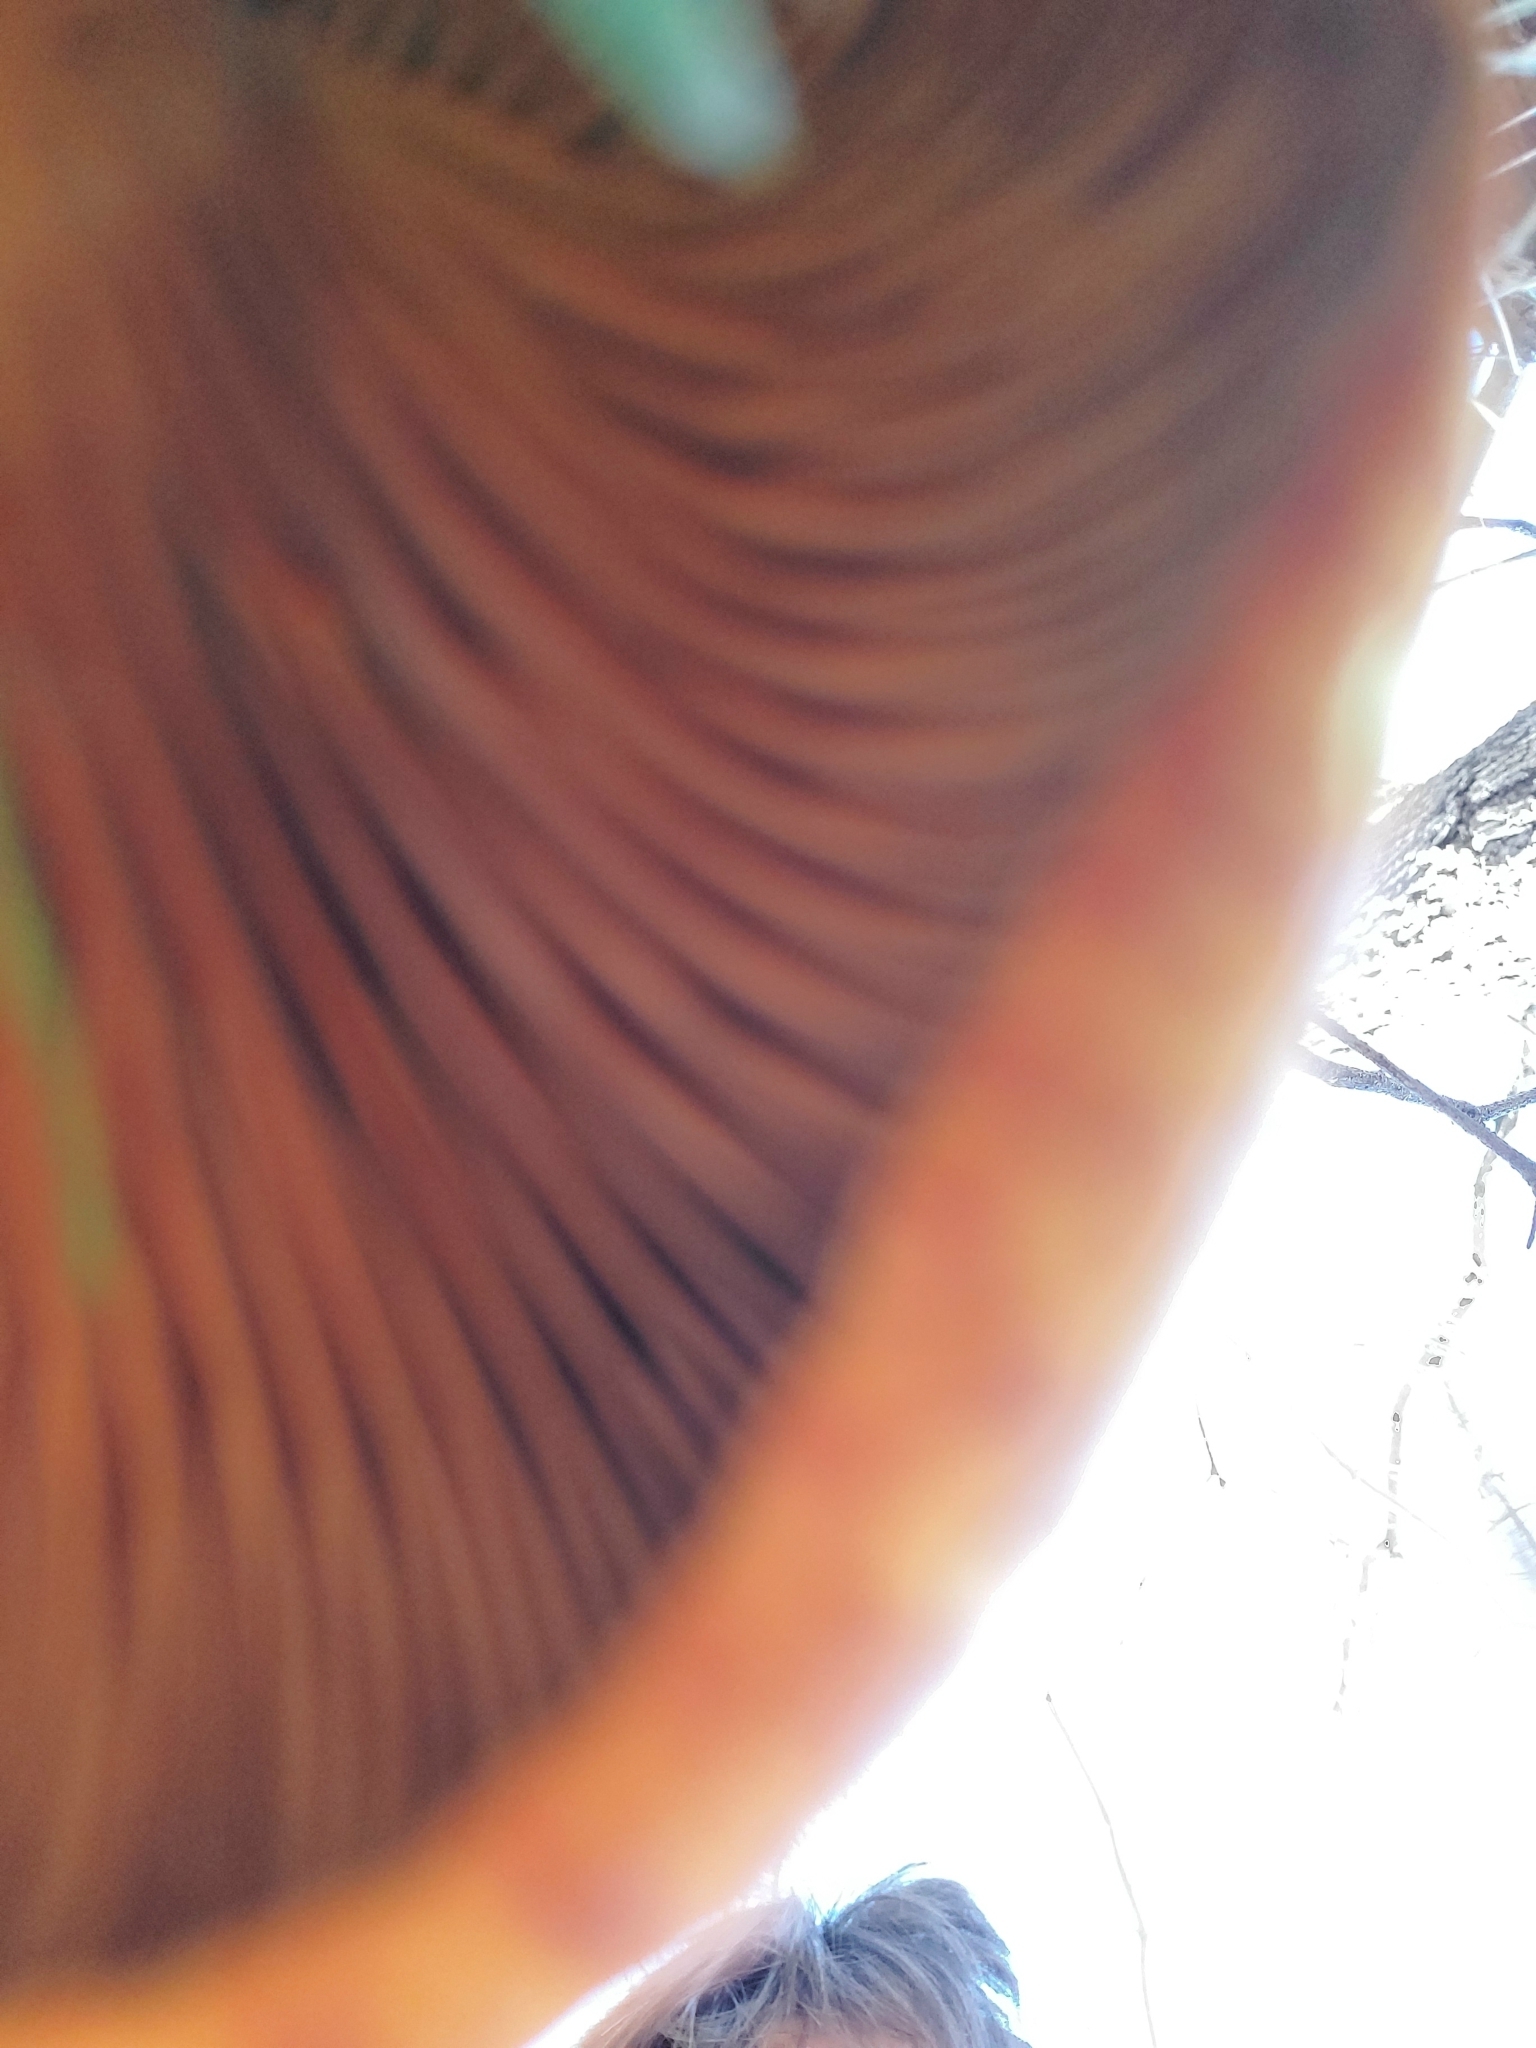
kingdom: Fungi
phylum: Basidiomycota
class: Agaricomycetes
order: Agaricales
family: Omphalotaceae
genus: Omphalotus
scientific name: Omphalotus olivascens
